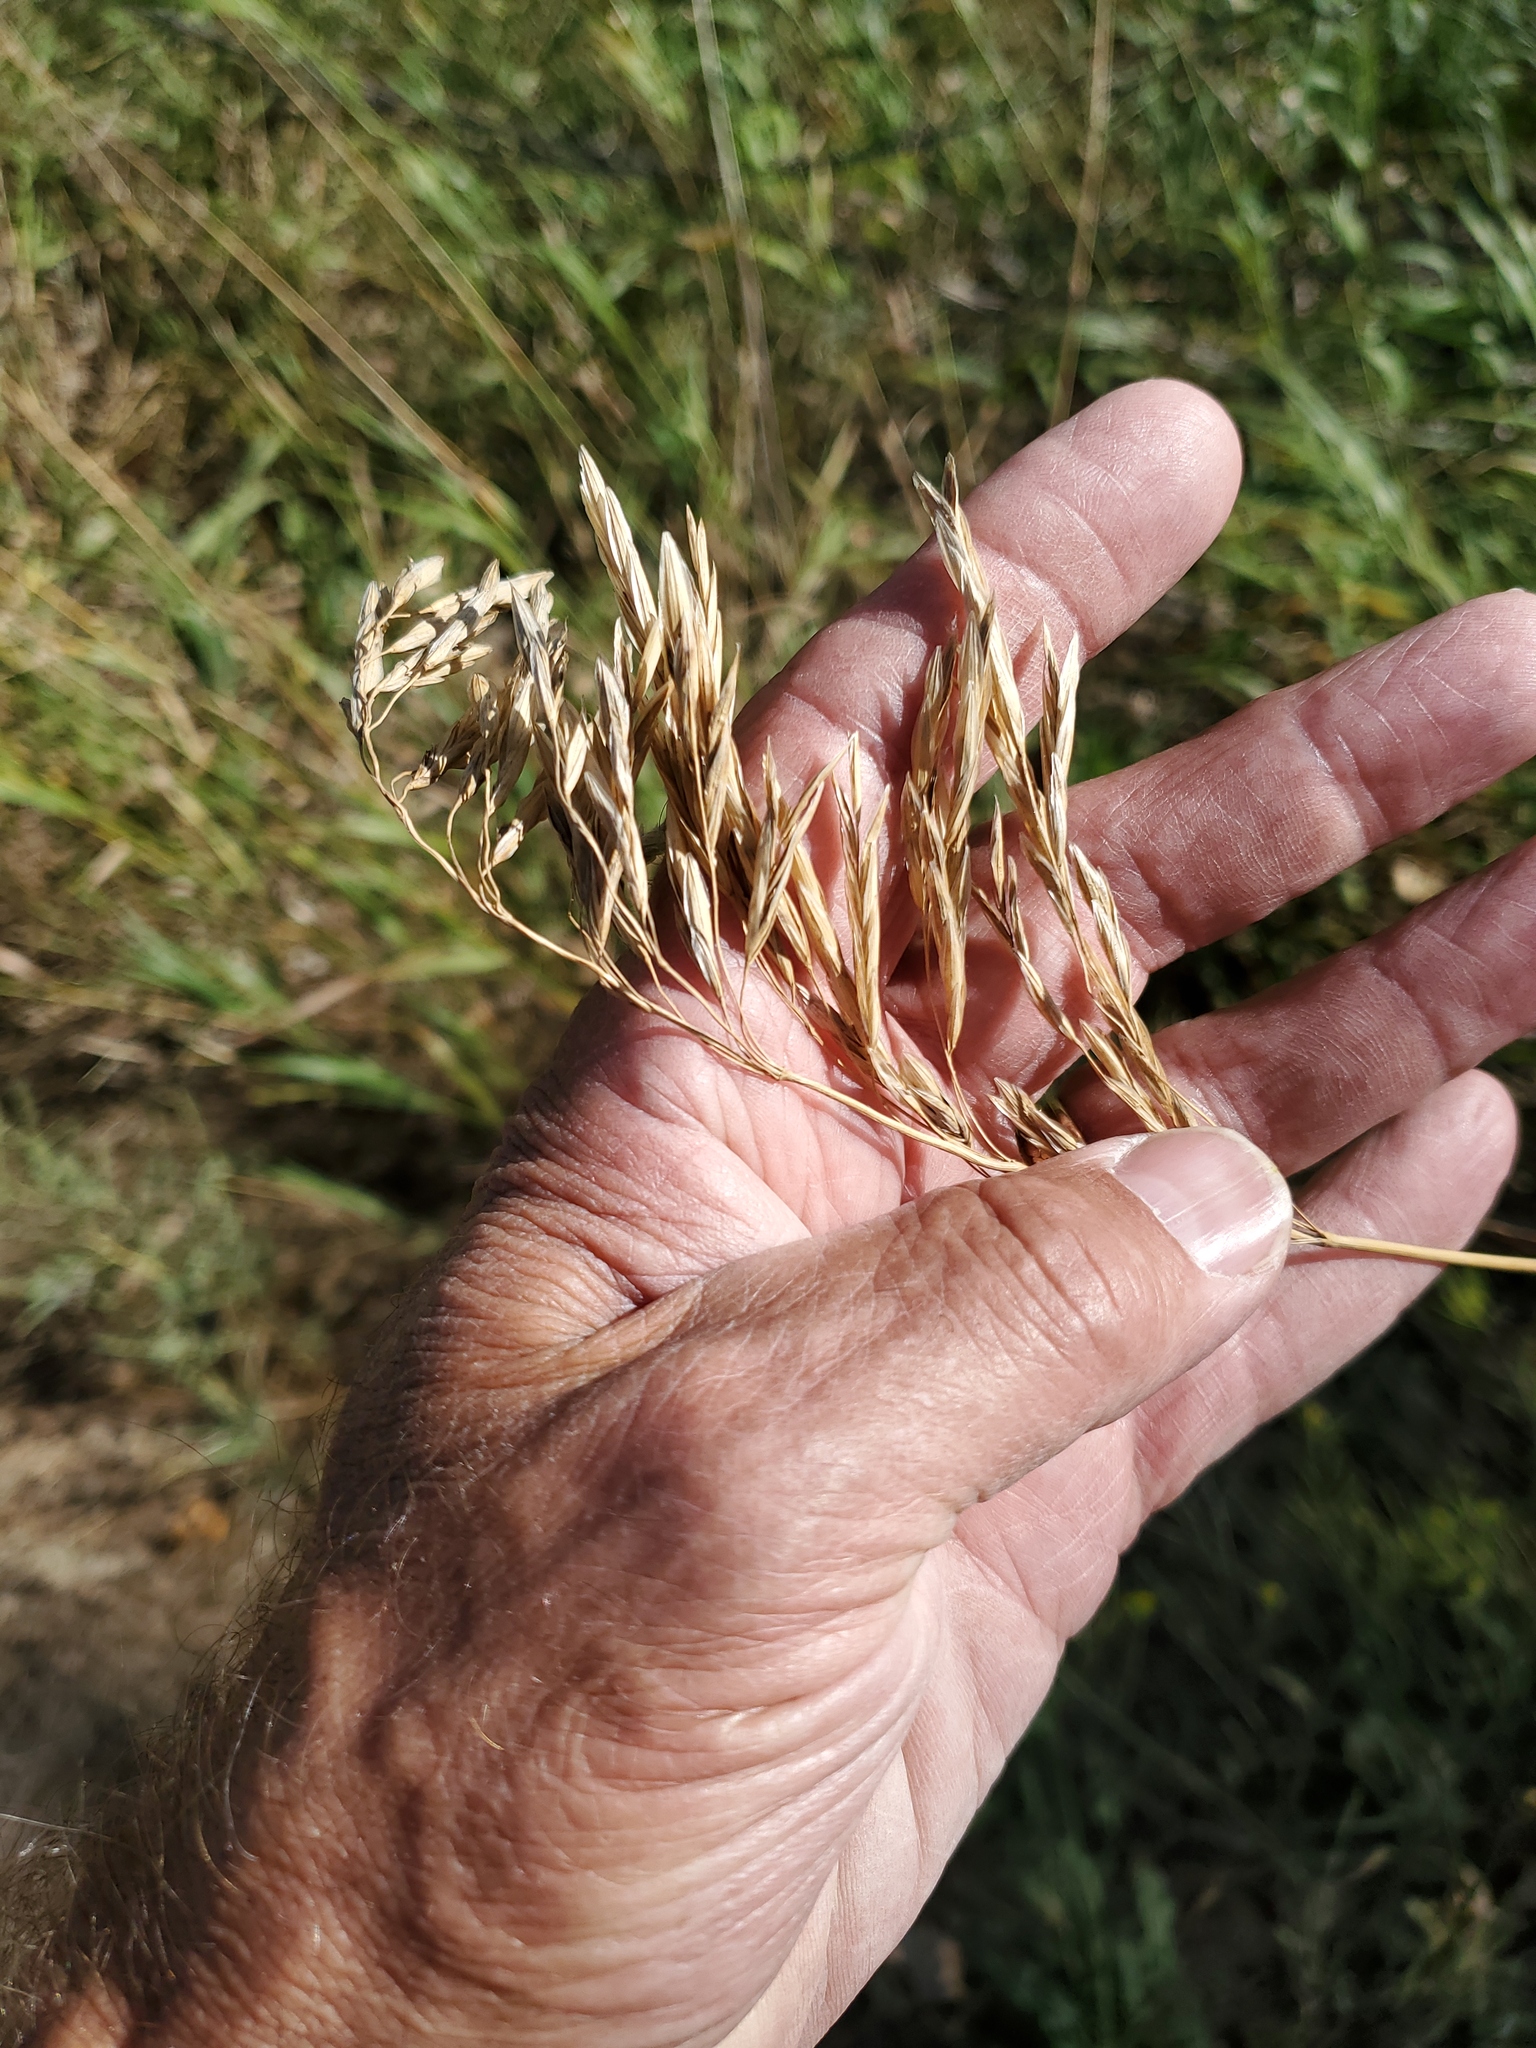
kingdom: Plantae
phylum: Tracheophyta
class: Liliopsida
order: Poales
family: Poaceae
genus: Bromus
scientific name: Bromus inermis
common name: Smooth brome
